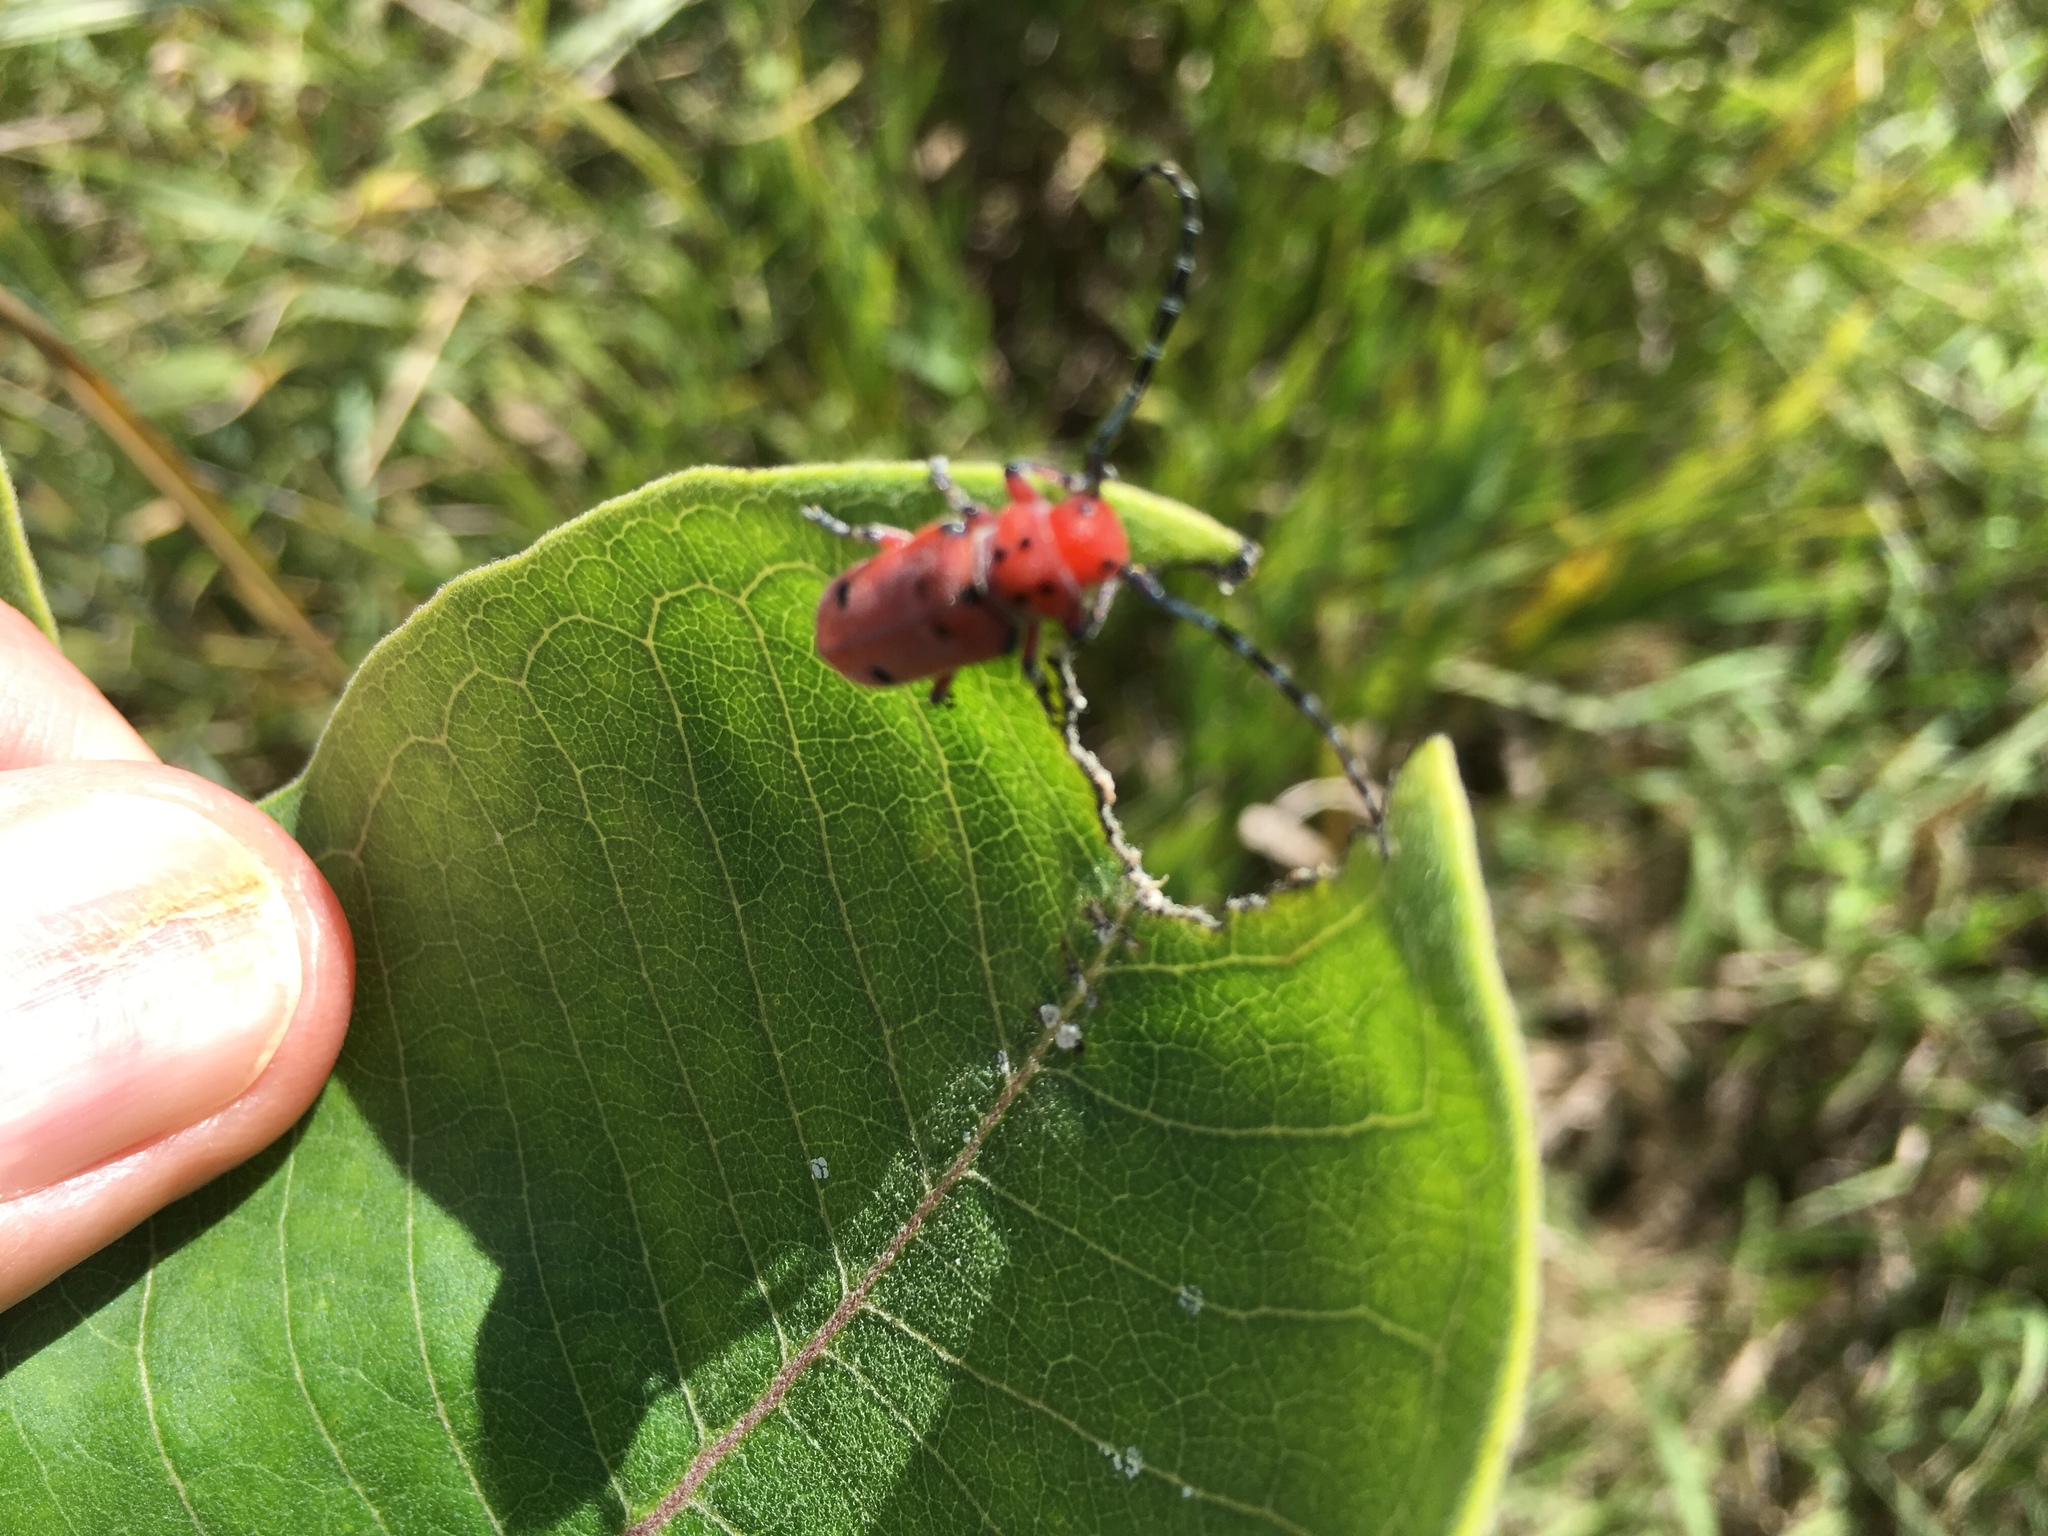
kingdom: Animalia
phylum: Arthropoda
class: Insecta
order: Coleoptera
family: Cerambycidae
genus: Tetraopes
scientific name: Tetraopes femoratus
